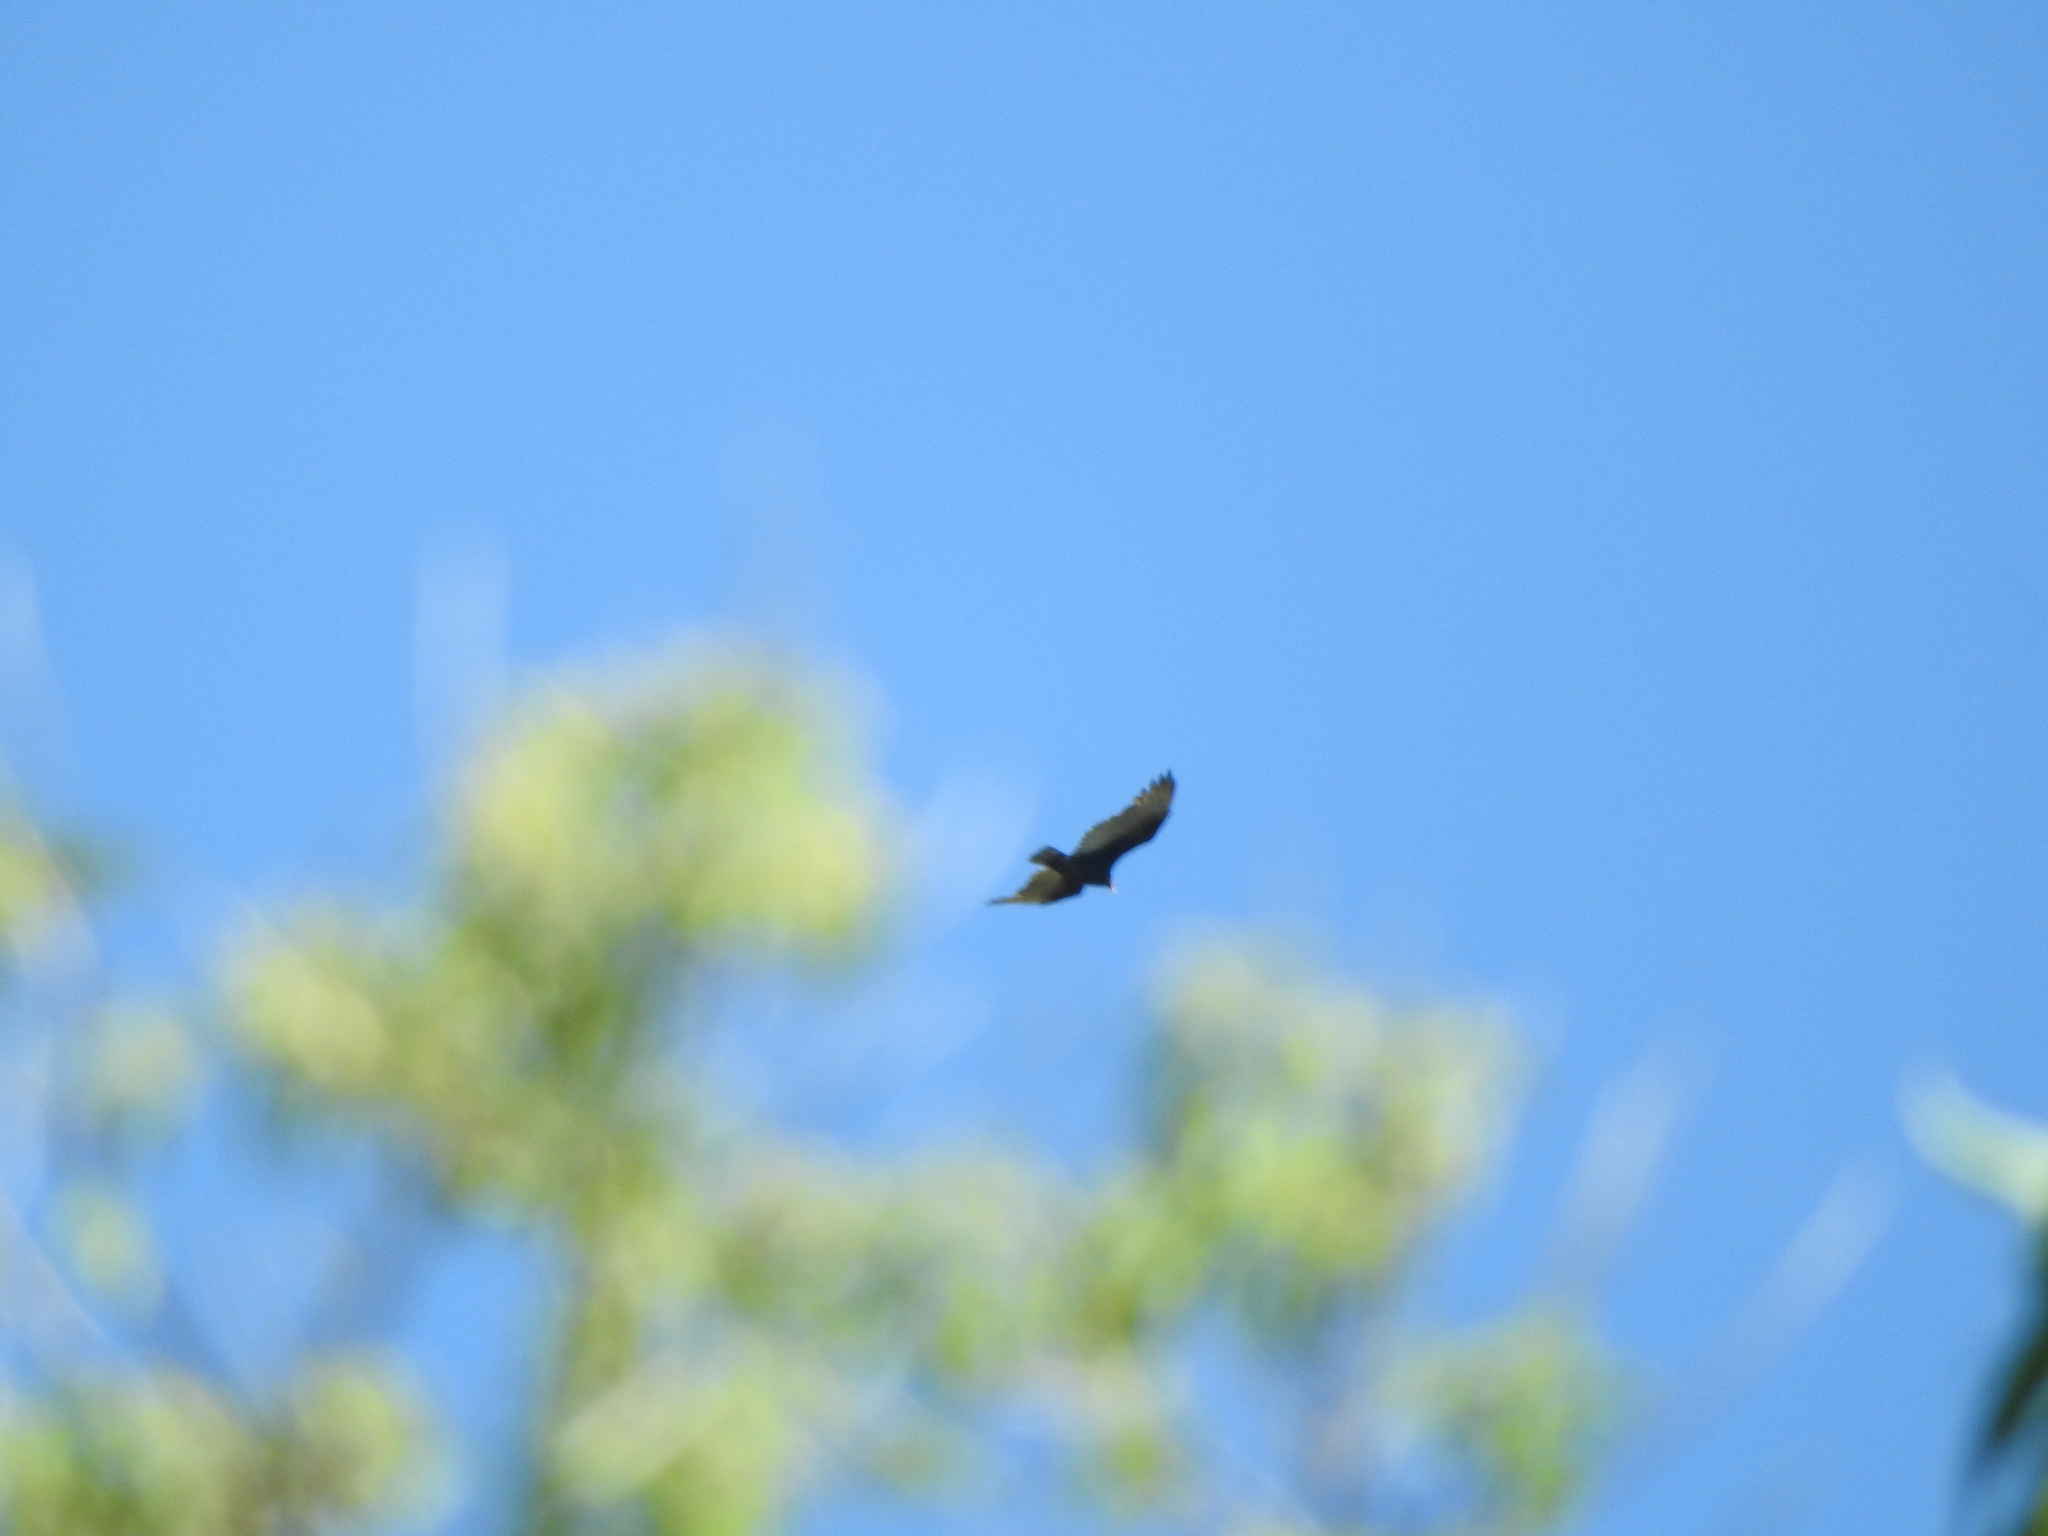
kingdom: Animalia
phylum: Chordata
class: Aves
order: Accipitriformes
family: Cathartidae
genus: Cathartes
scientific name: Cathartes aura
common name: Turkey vulture
